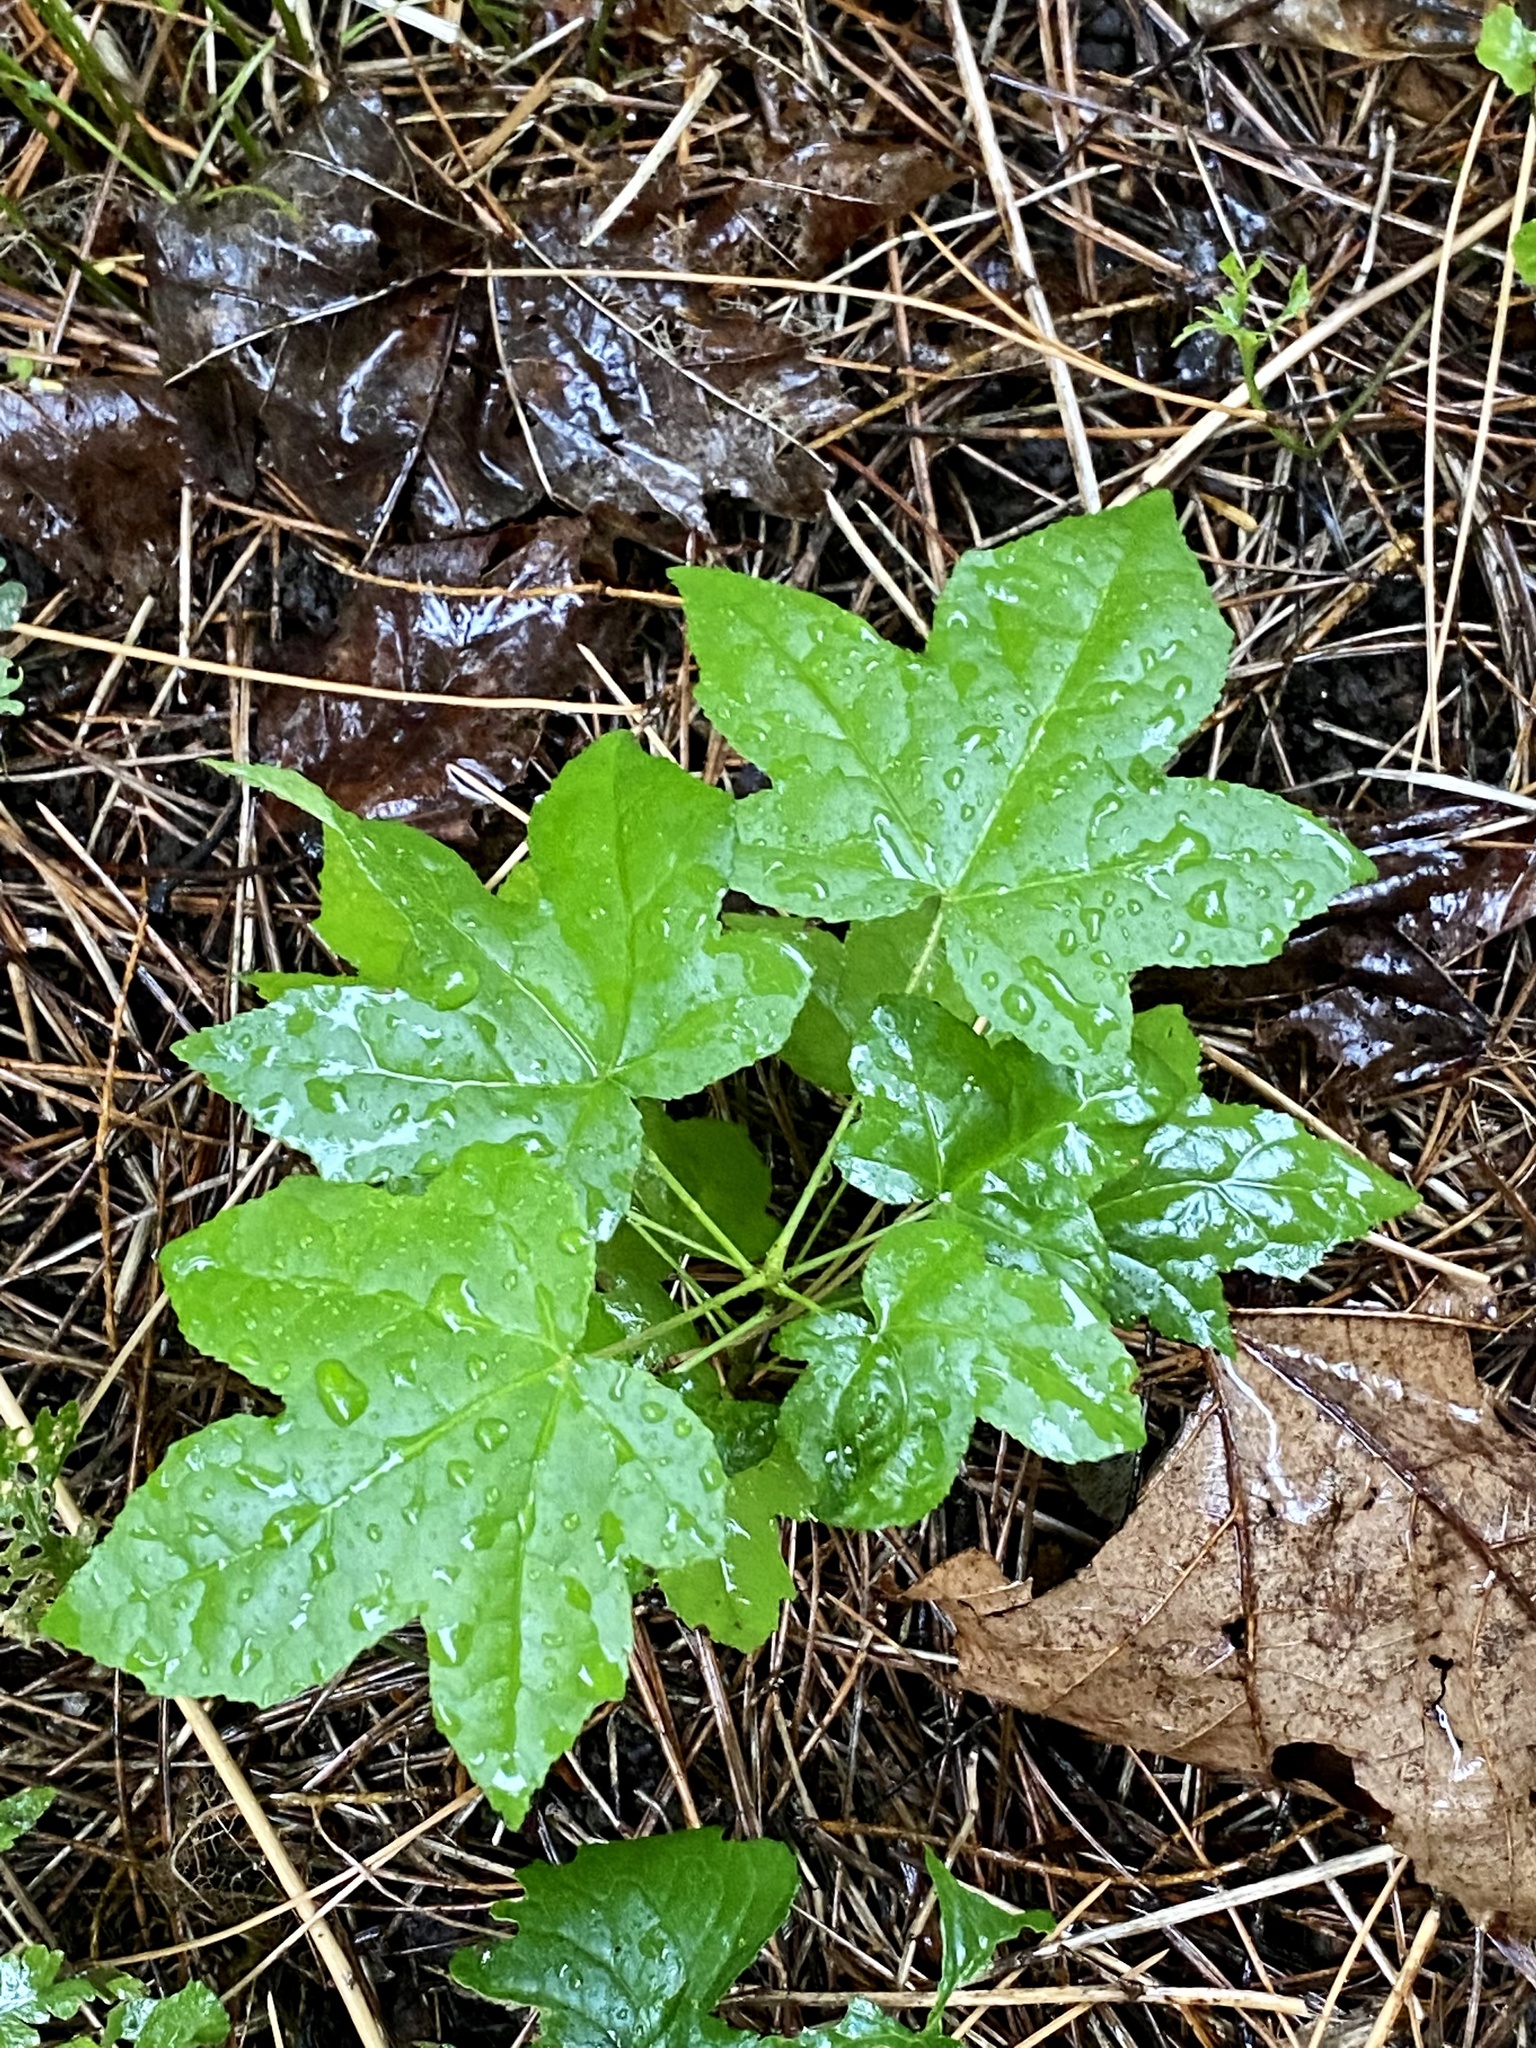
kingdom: Plantae
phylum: Tracheophyta
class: Magnoliopsida
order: Saxifragales
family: Altingiaceae
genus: Liquidambar
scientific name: Liquidambar styraciflua
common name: Sweet gum
